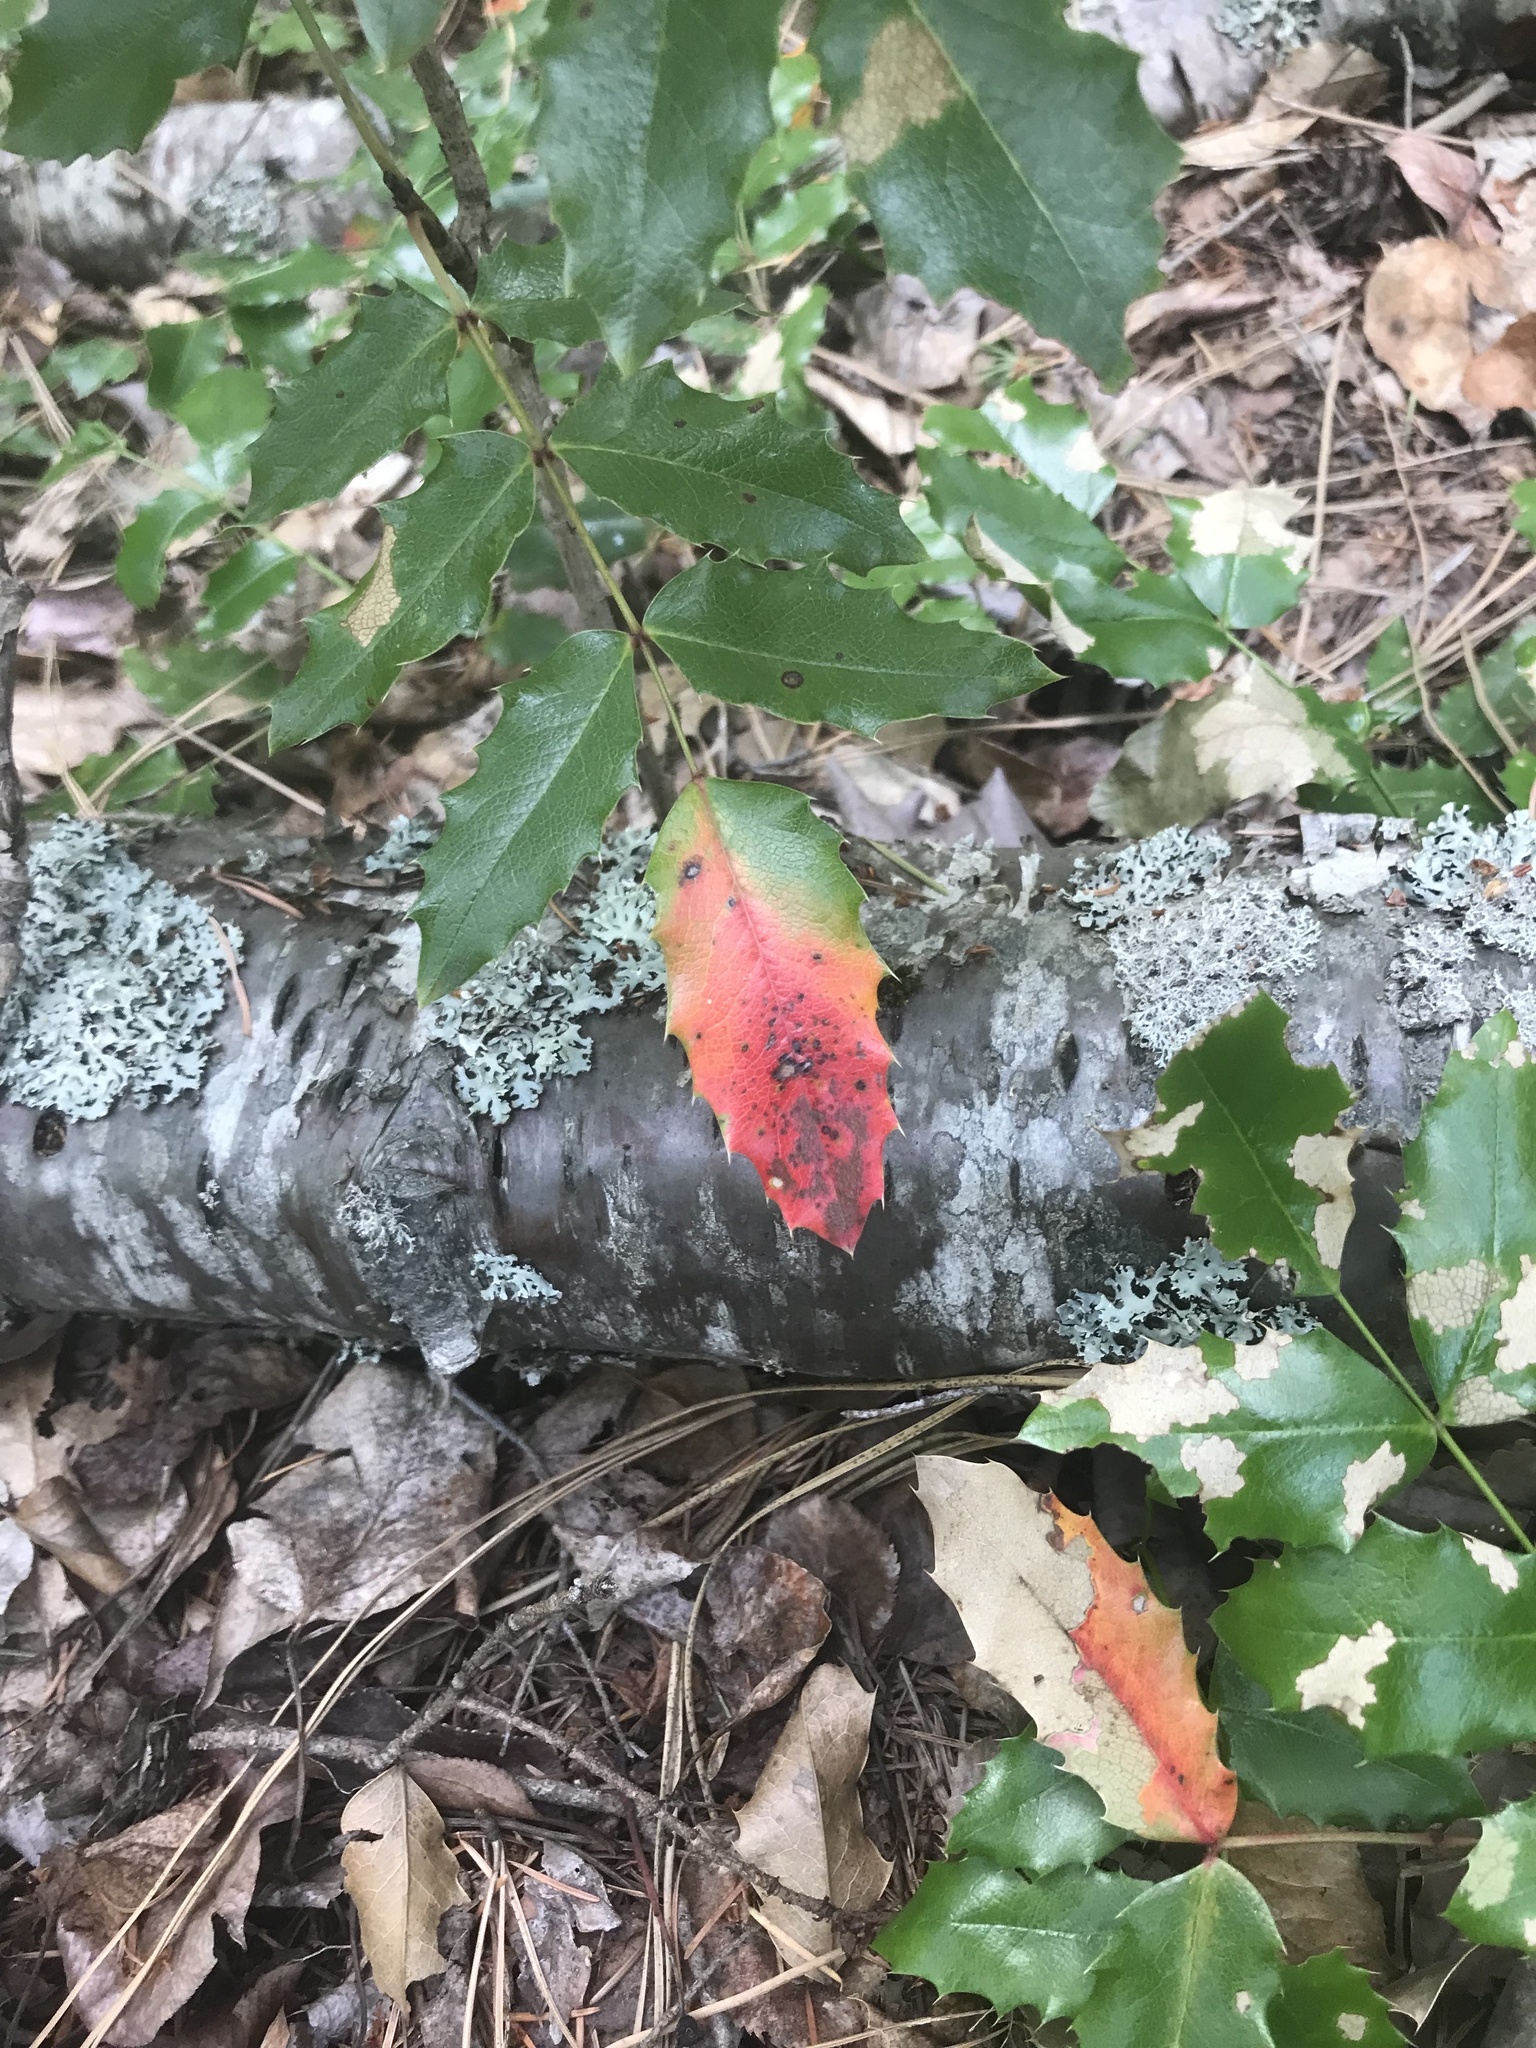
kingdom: Plantae
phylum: Tracheophyta
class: Magnoliopsida
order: Ranunculales
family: Berberidaceae
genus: Mahonia
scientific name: Mahonia aquifolium
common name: Oregon-grape
